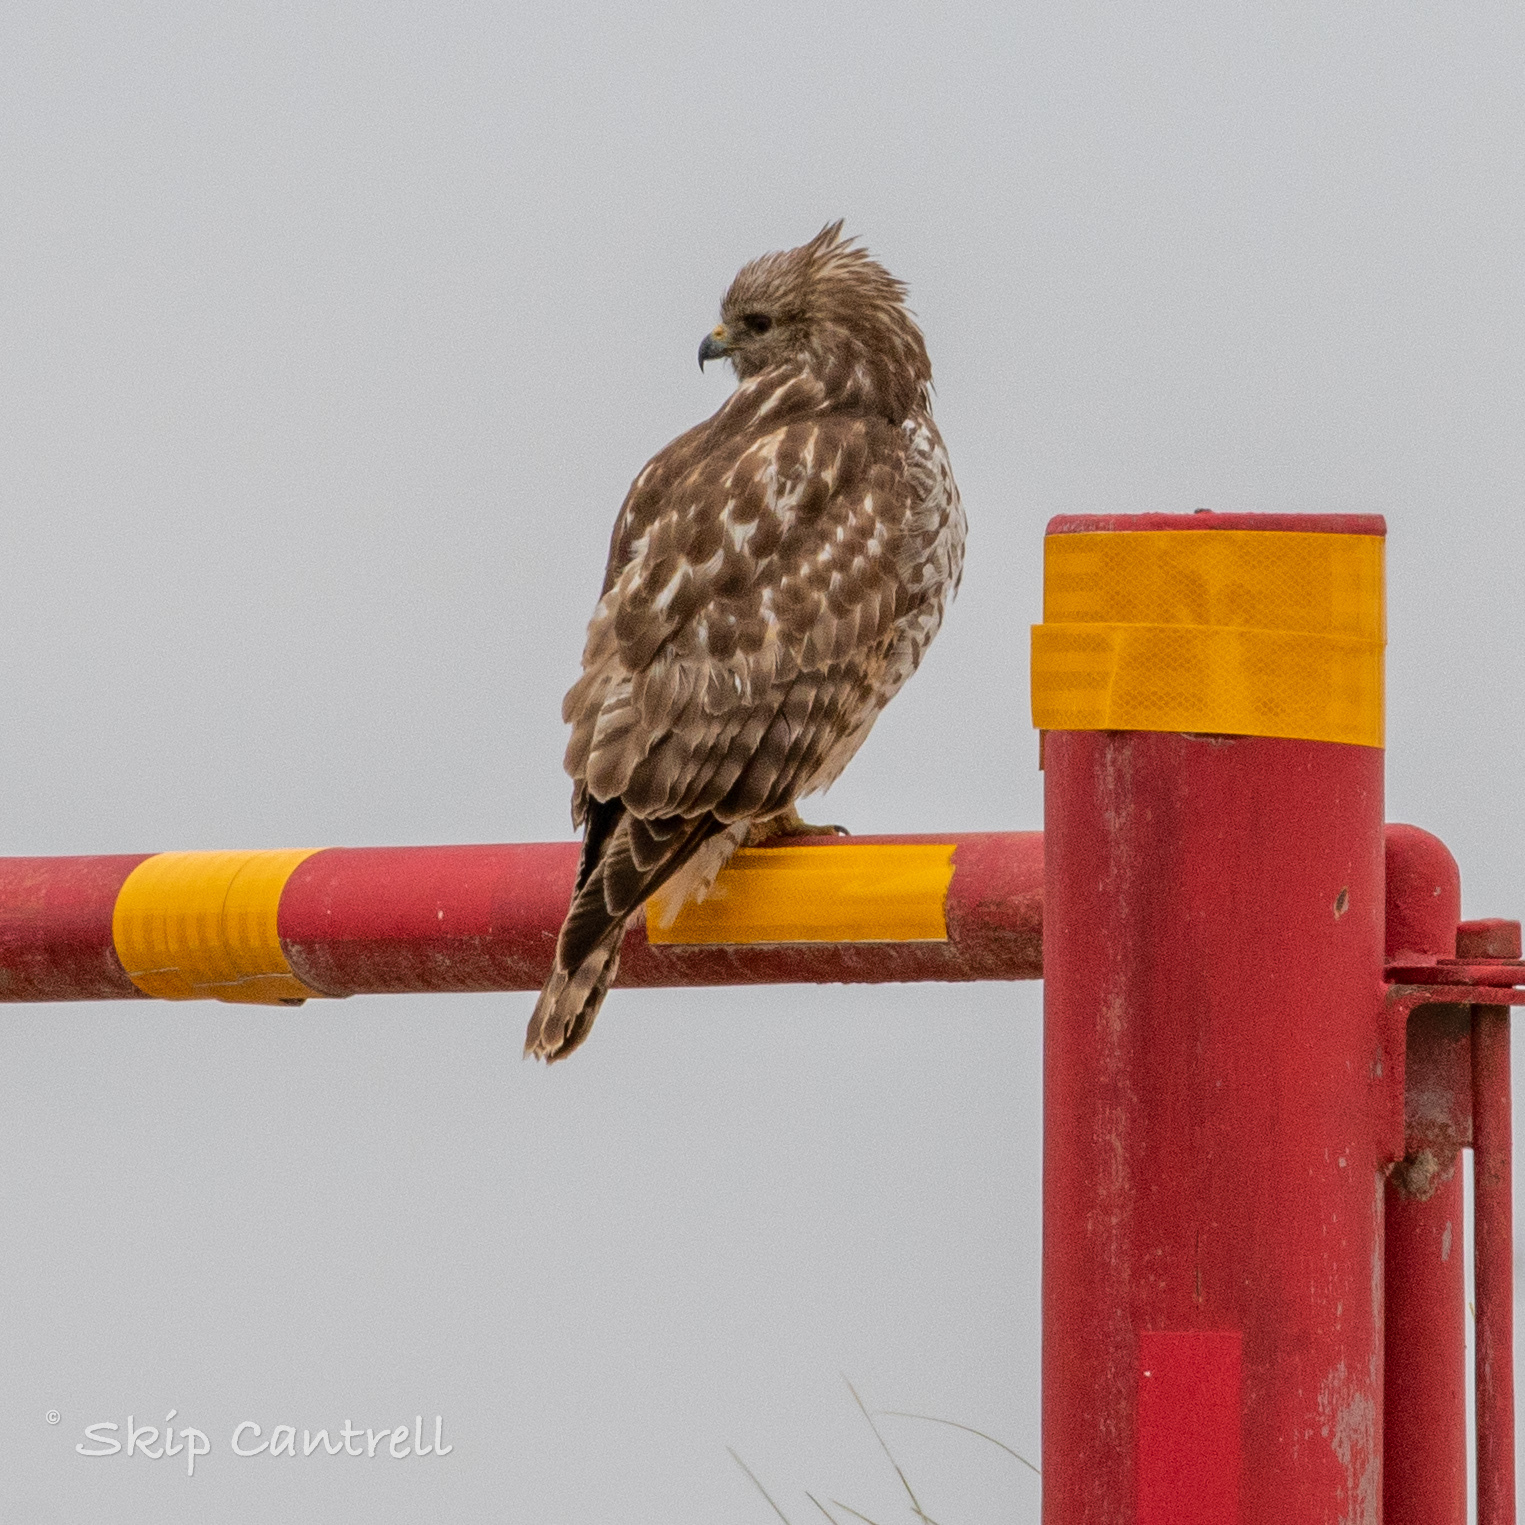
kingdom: Animalia
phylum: Chordata
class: Aves
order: Accipitriformes
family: Accipitridae
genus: Buteo
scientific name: Buteo lineatus
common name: Red-shouldered hawk
